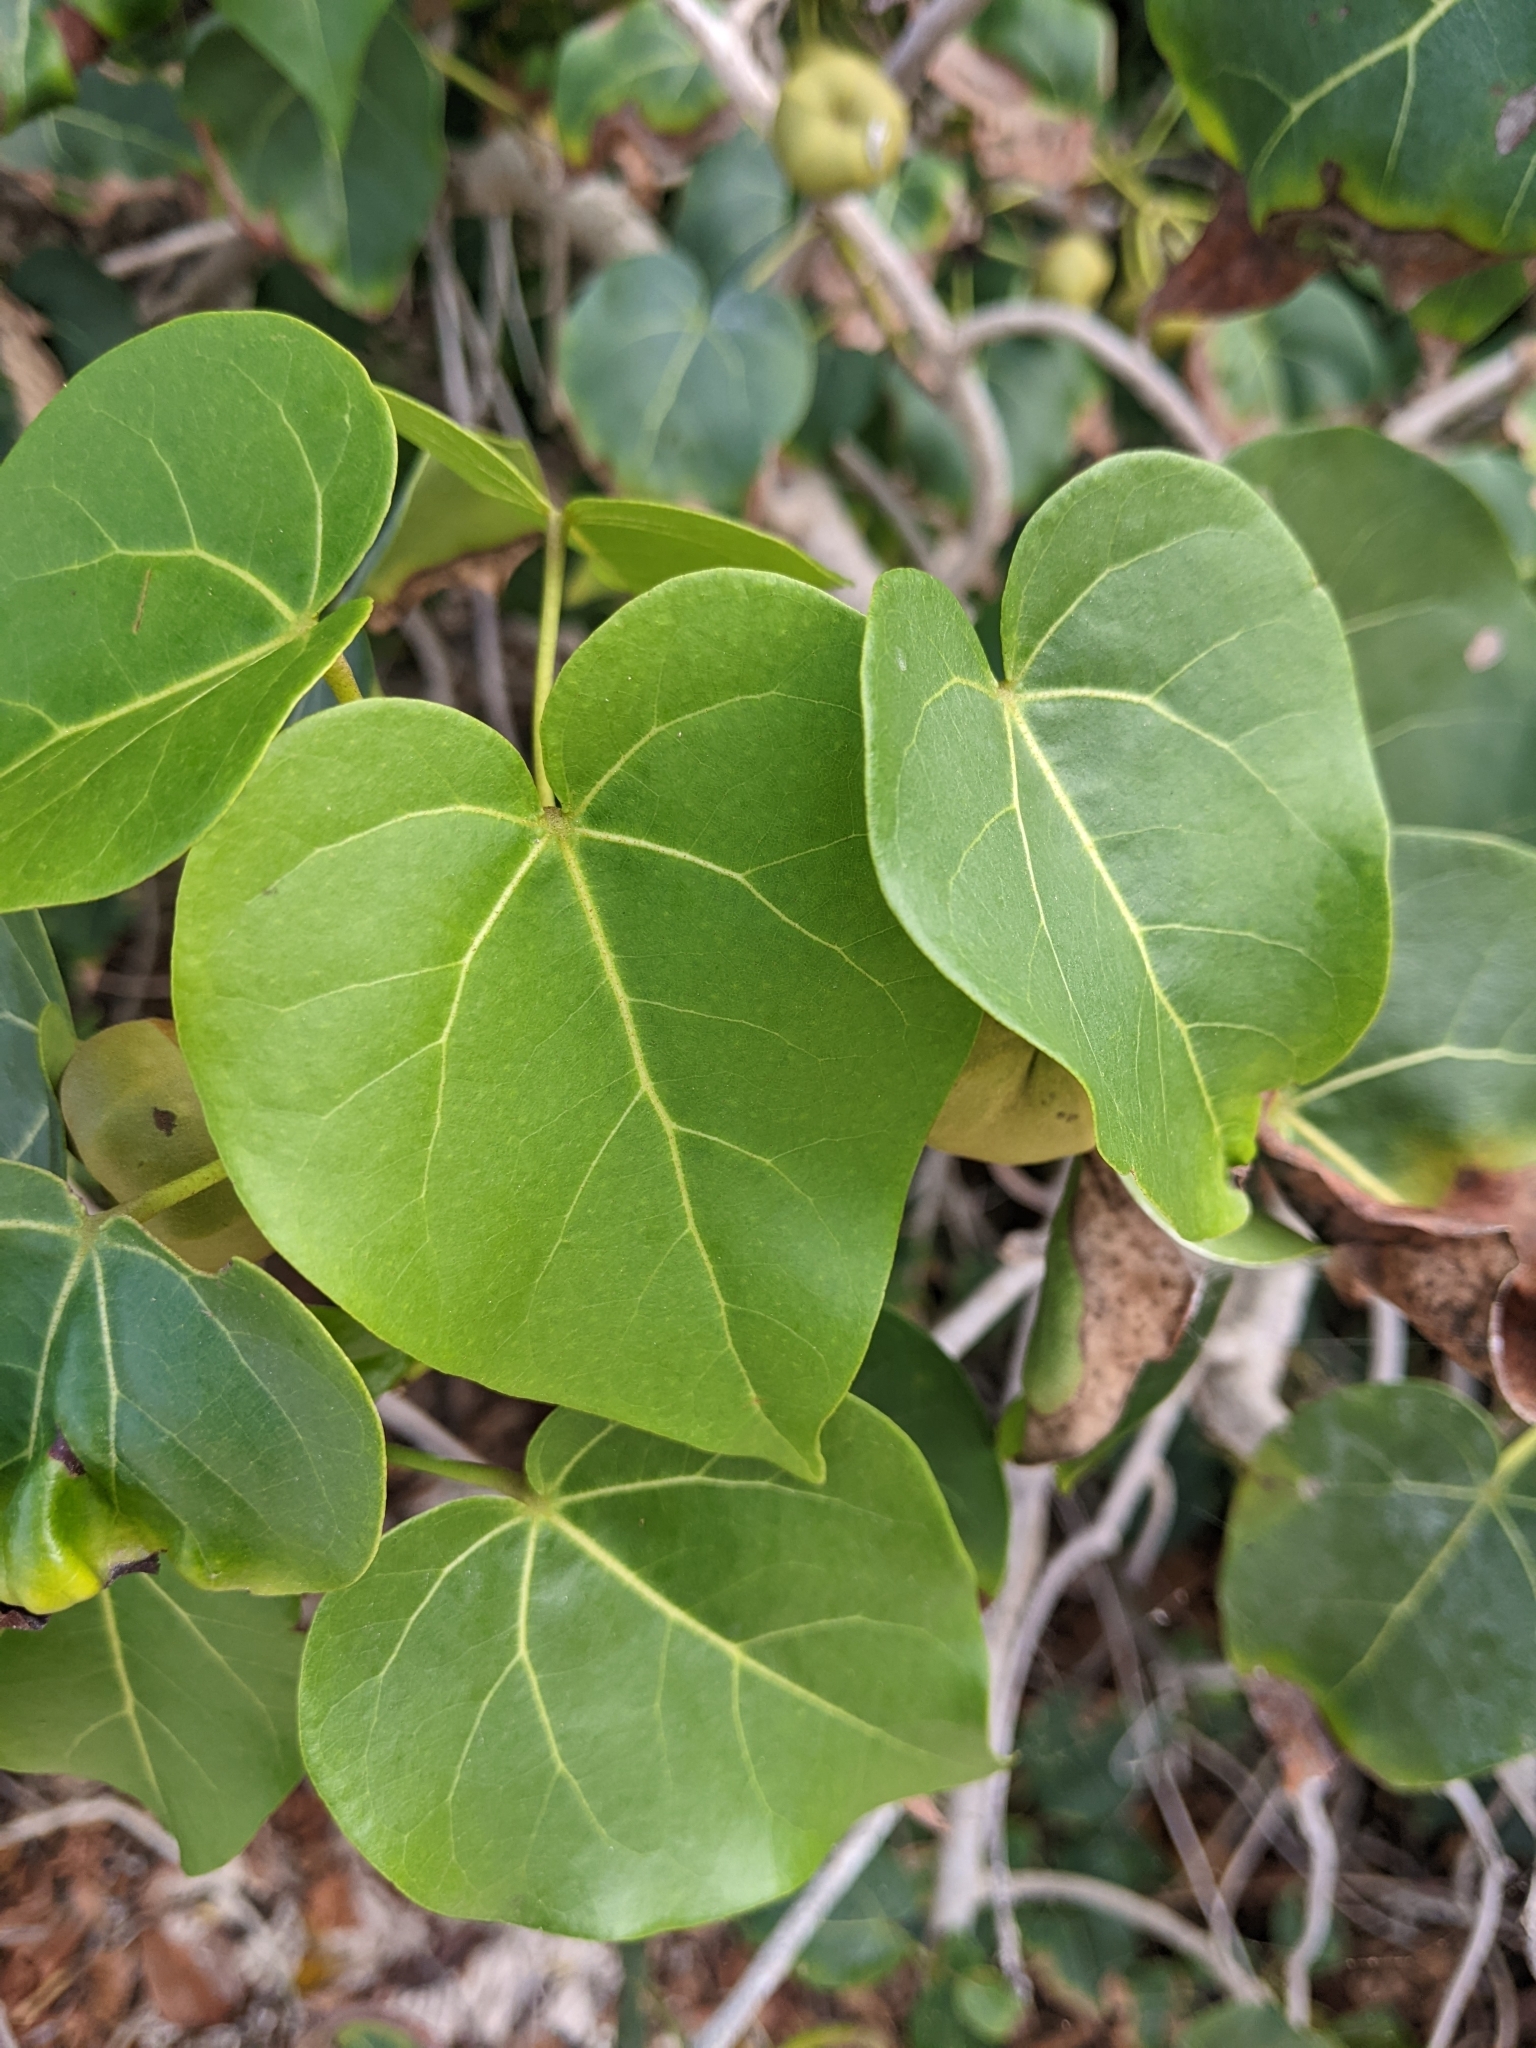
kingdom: Plantae
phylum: Tracheophyta
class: Magnoliopsida
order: Malvales
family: Malvaceae
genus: Thespesia
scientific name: Thespesia populnea
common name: Seaside mahoe
